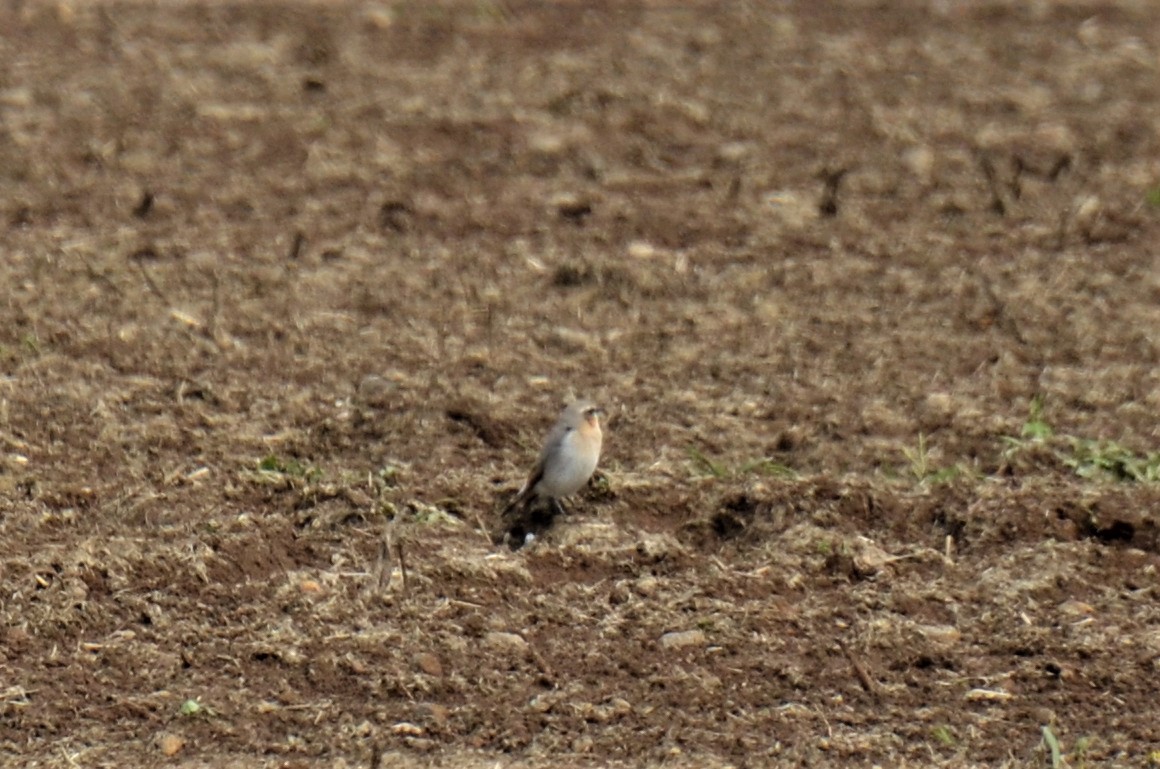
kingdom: Animalia
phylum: Chordata
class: Aves
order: Passeriformes
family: Muscicapidae
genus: Oenanthe
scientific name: Oenanthe oenanthe
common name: Northern wheatear
